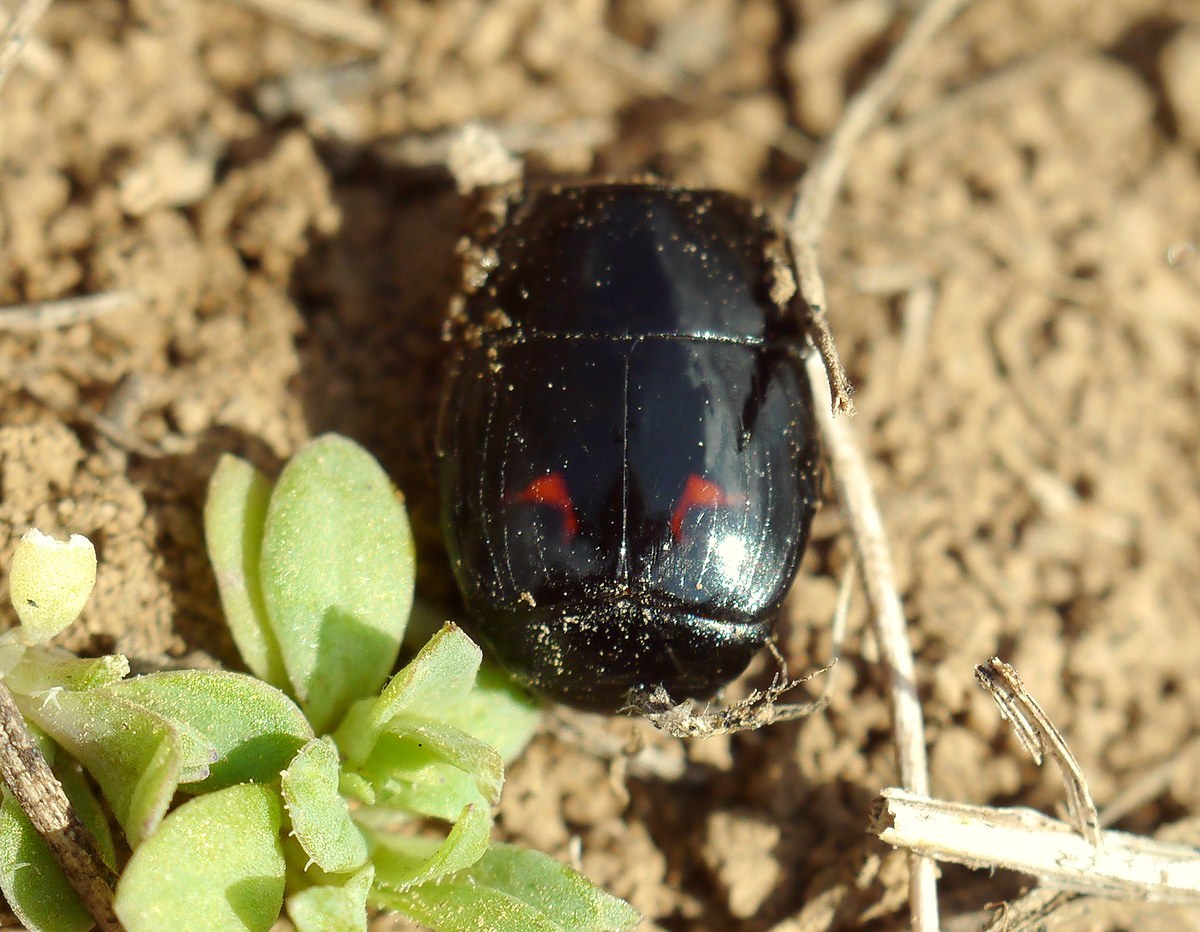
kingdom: Animalia
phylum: Arthropoda
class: Insecta
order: Coleoptera
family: Histeridae
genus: Hister
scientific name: Hister quadrimaculatus
